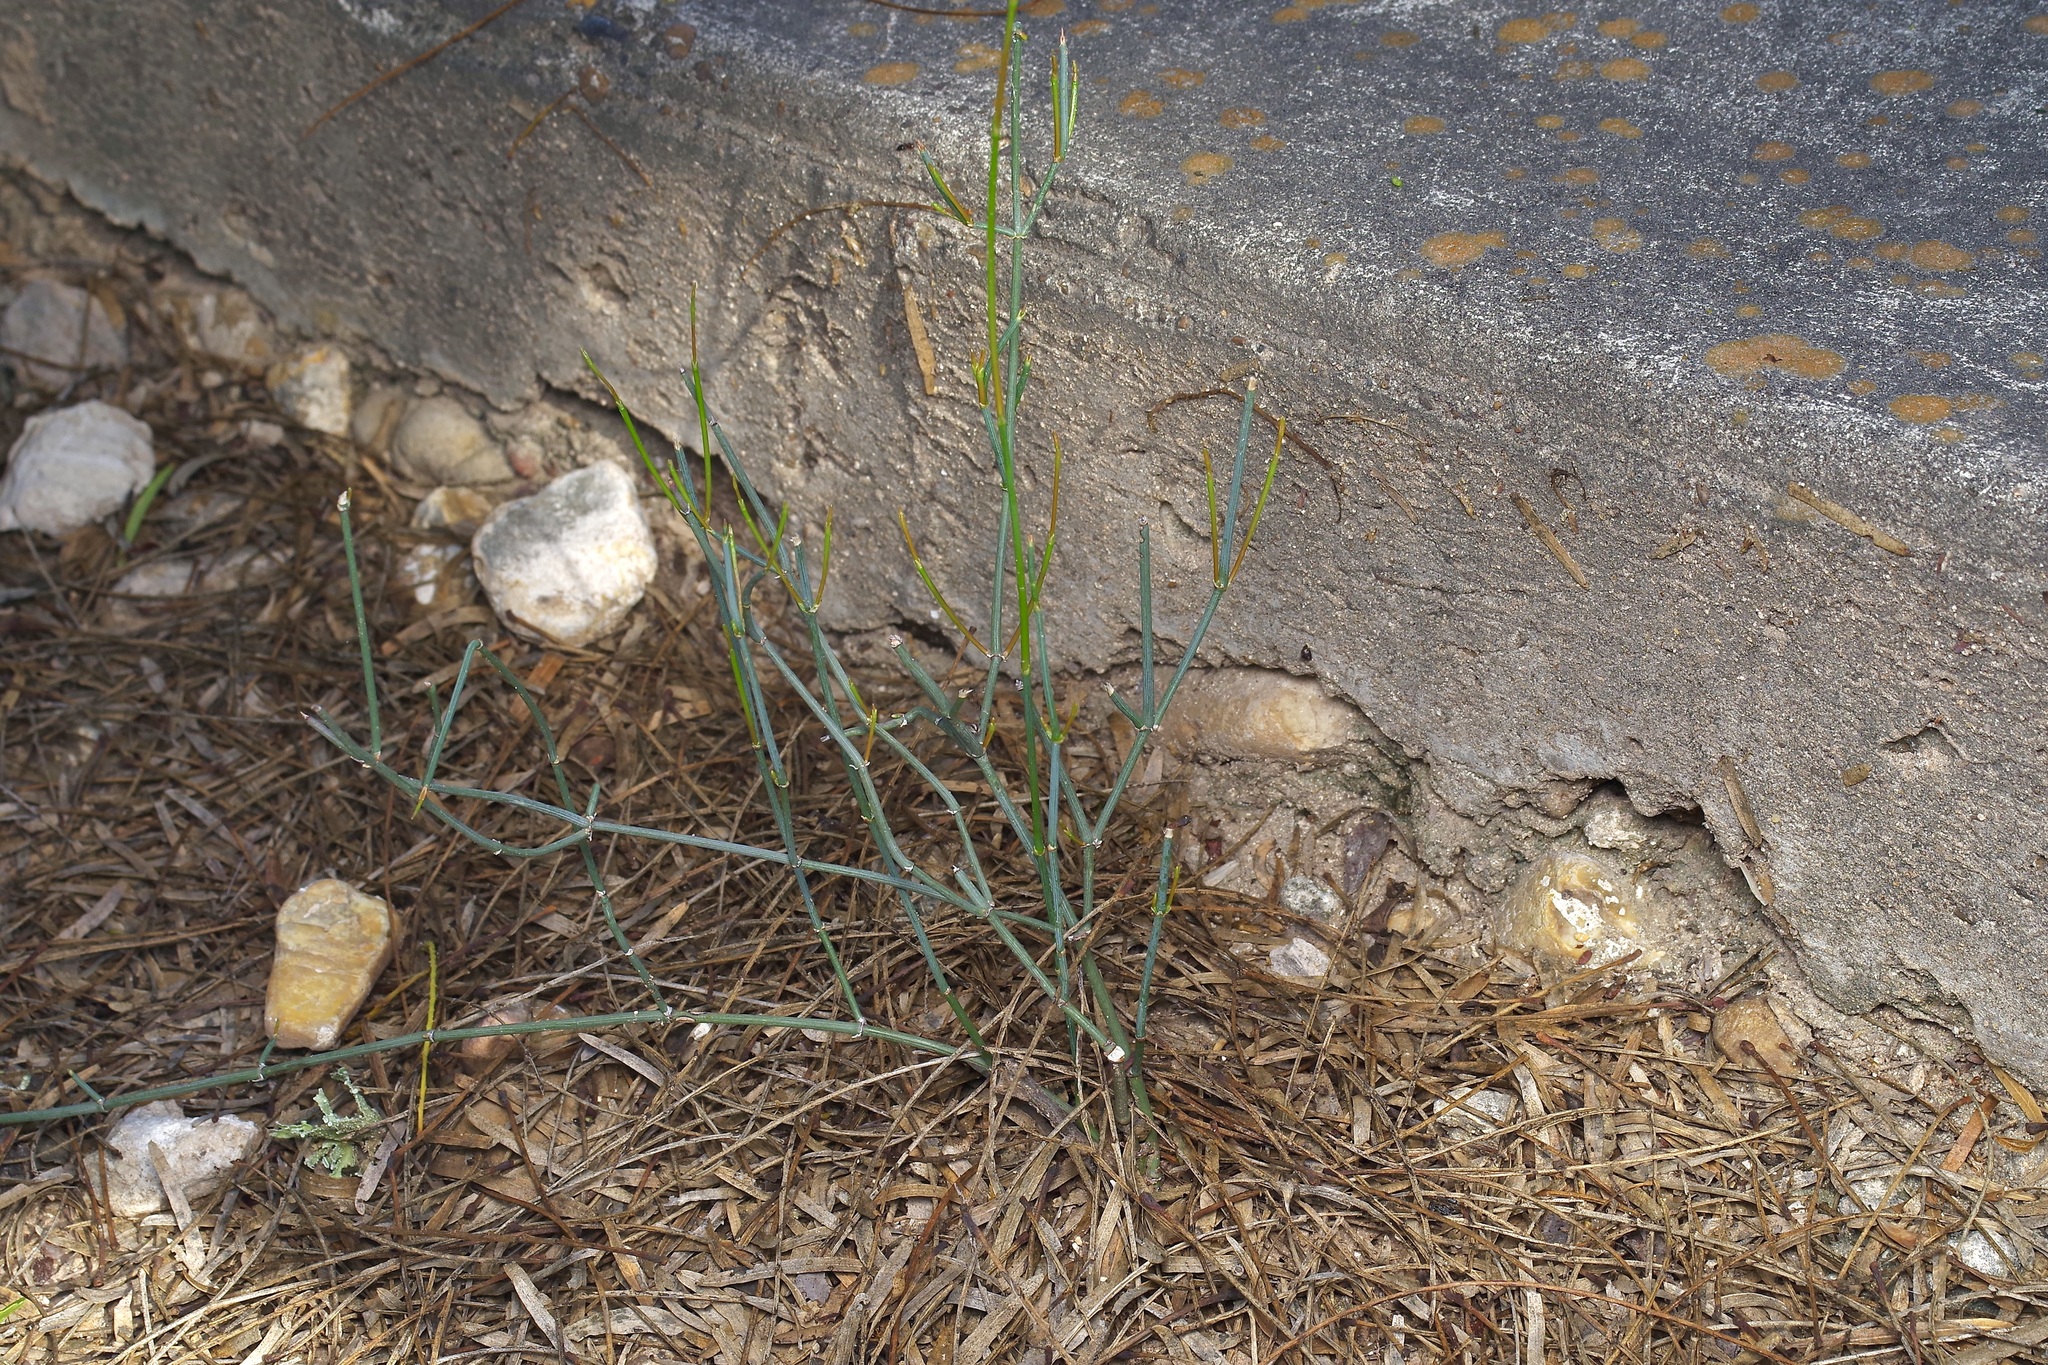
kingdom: Plantae
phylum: Tracheophyta
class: Gnetopsida
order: Ephedrales
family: Ephedraceae
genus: Ephedra
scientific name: Ephedra antisyphilitica
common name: Clipweed
